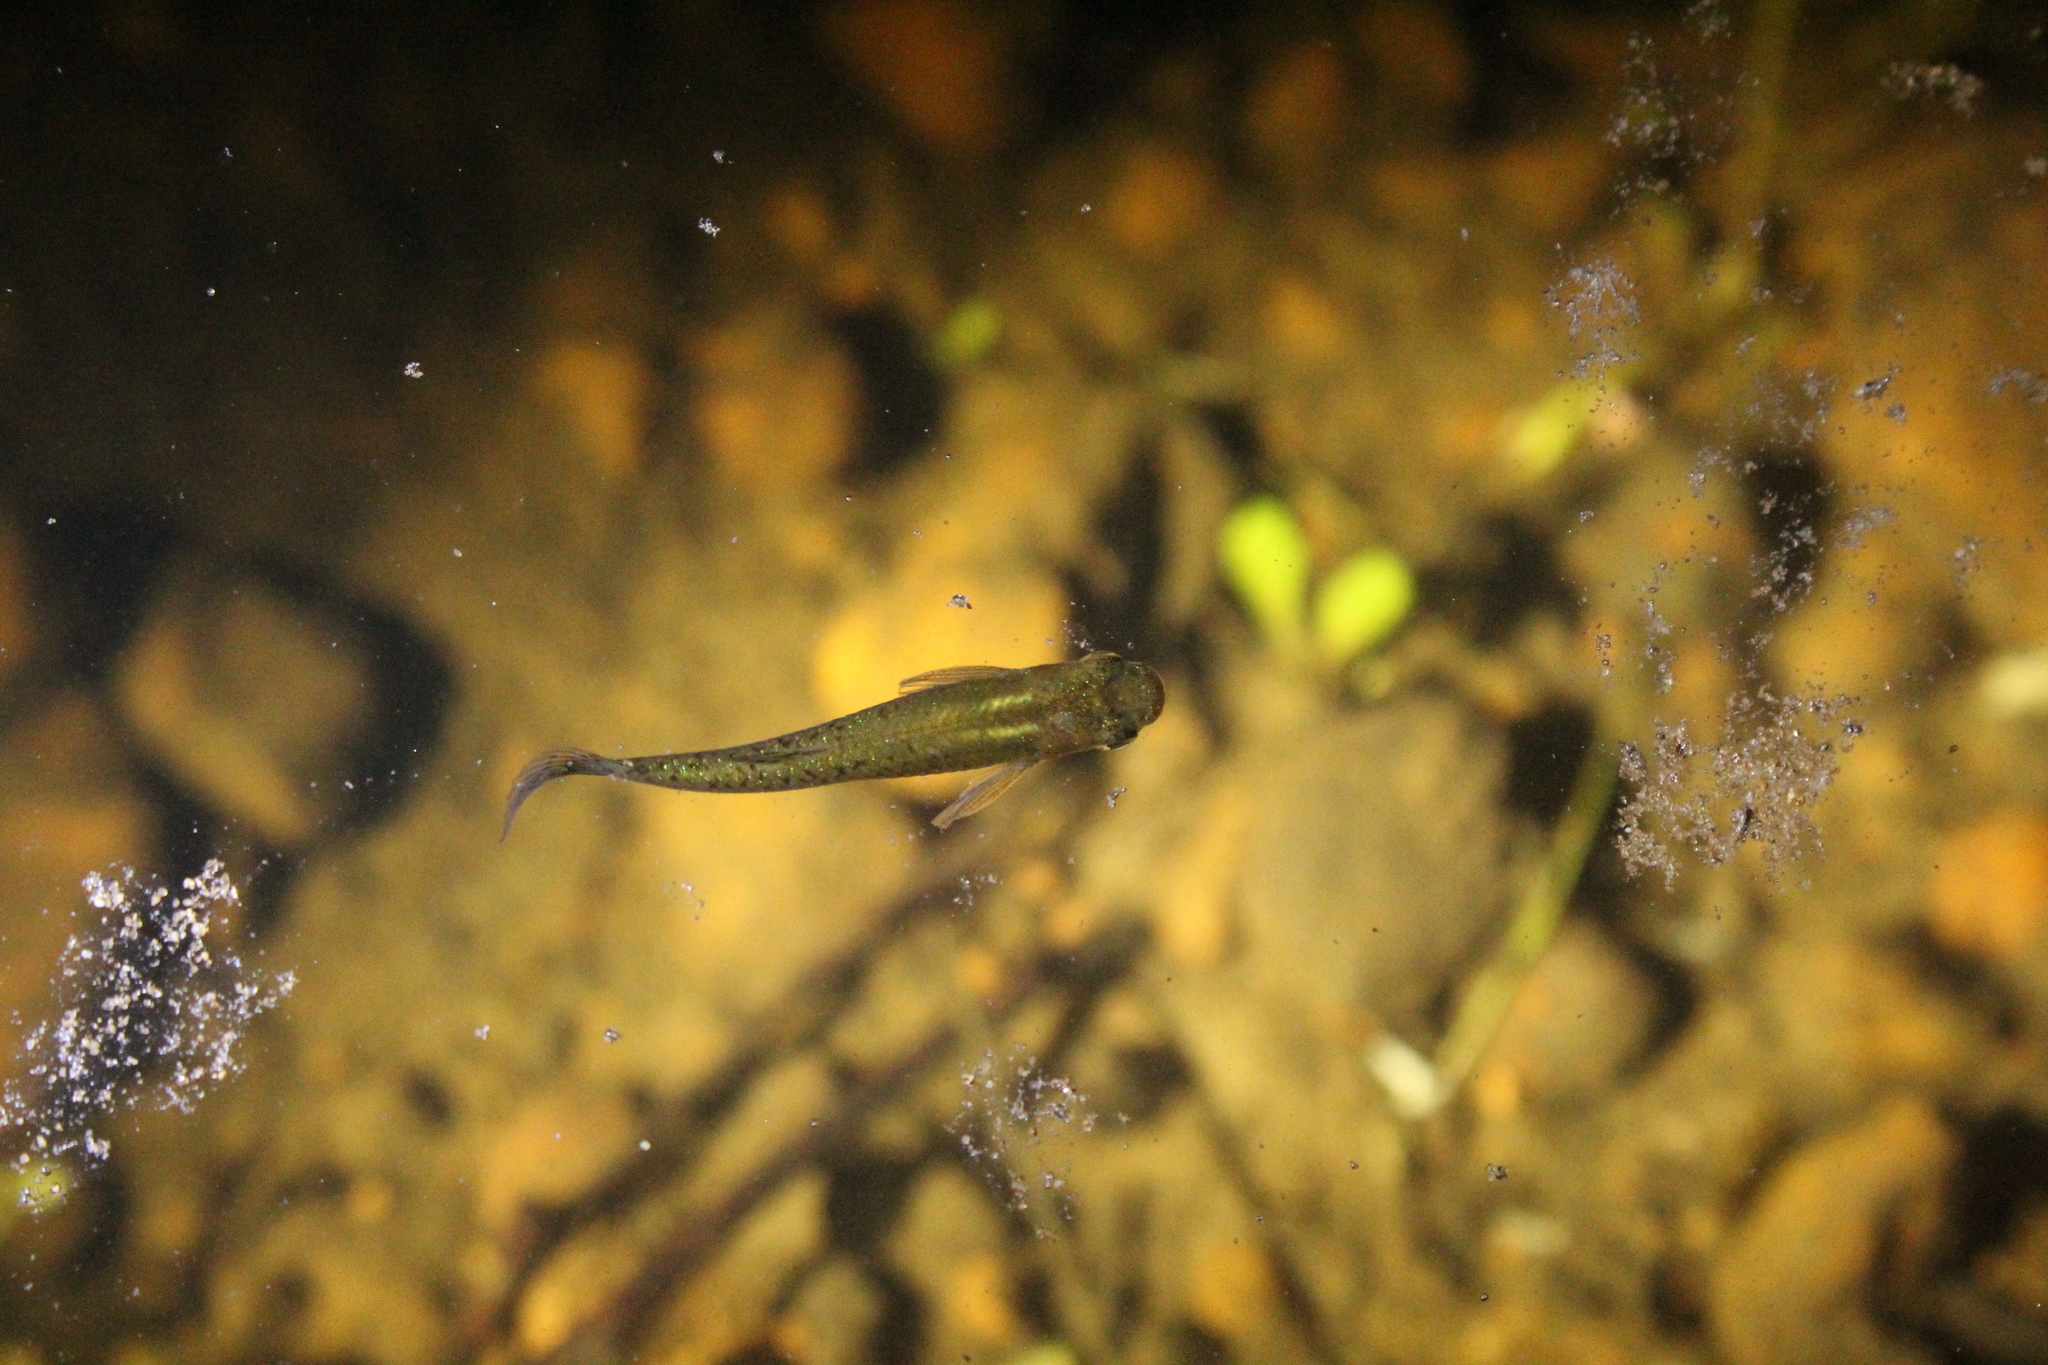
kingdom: Animalia
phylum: Chordata
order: Cyprinodontiformes
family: Poeciliidae
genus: Gambusia
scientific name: Gambusia holbrooki
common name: Eastern mosquitofish
